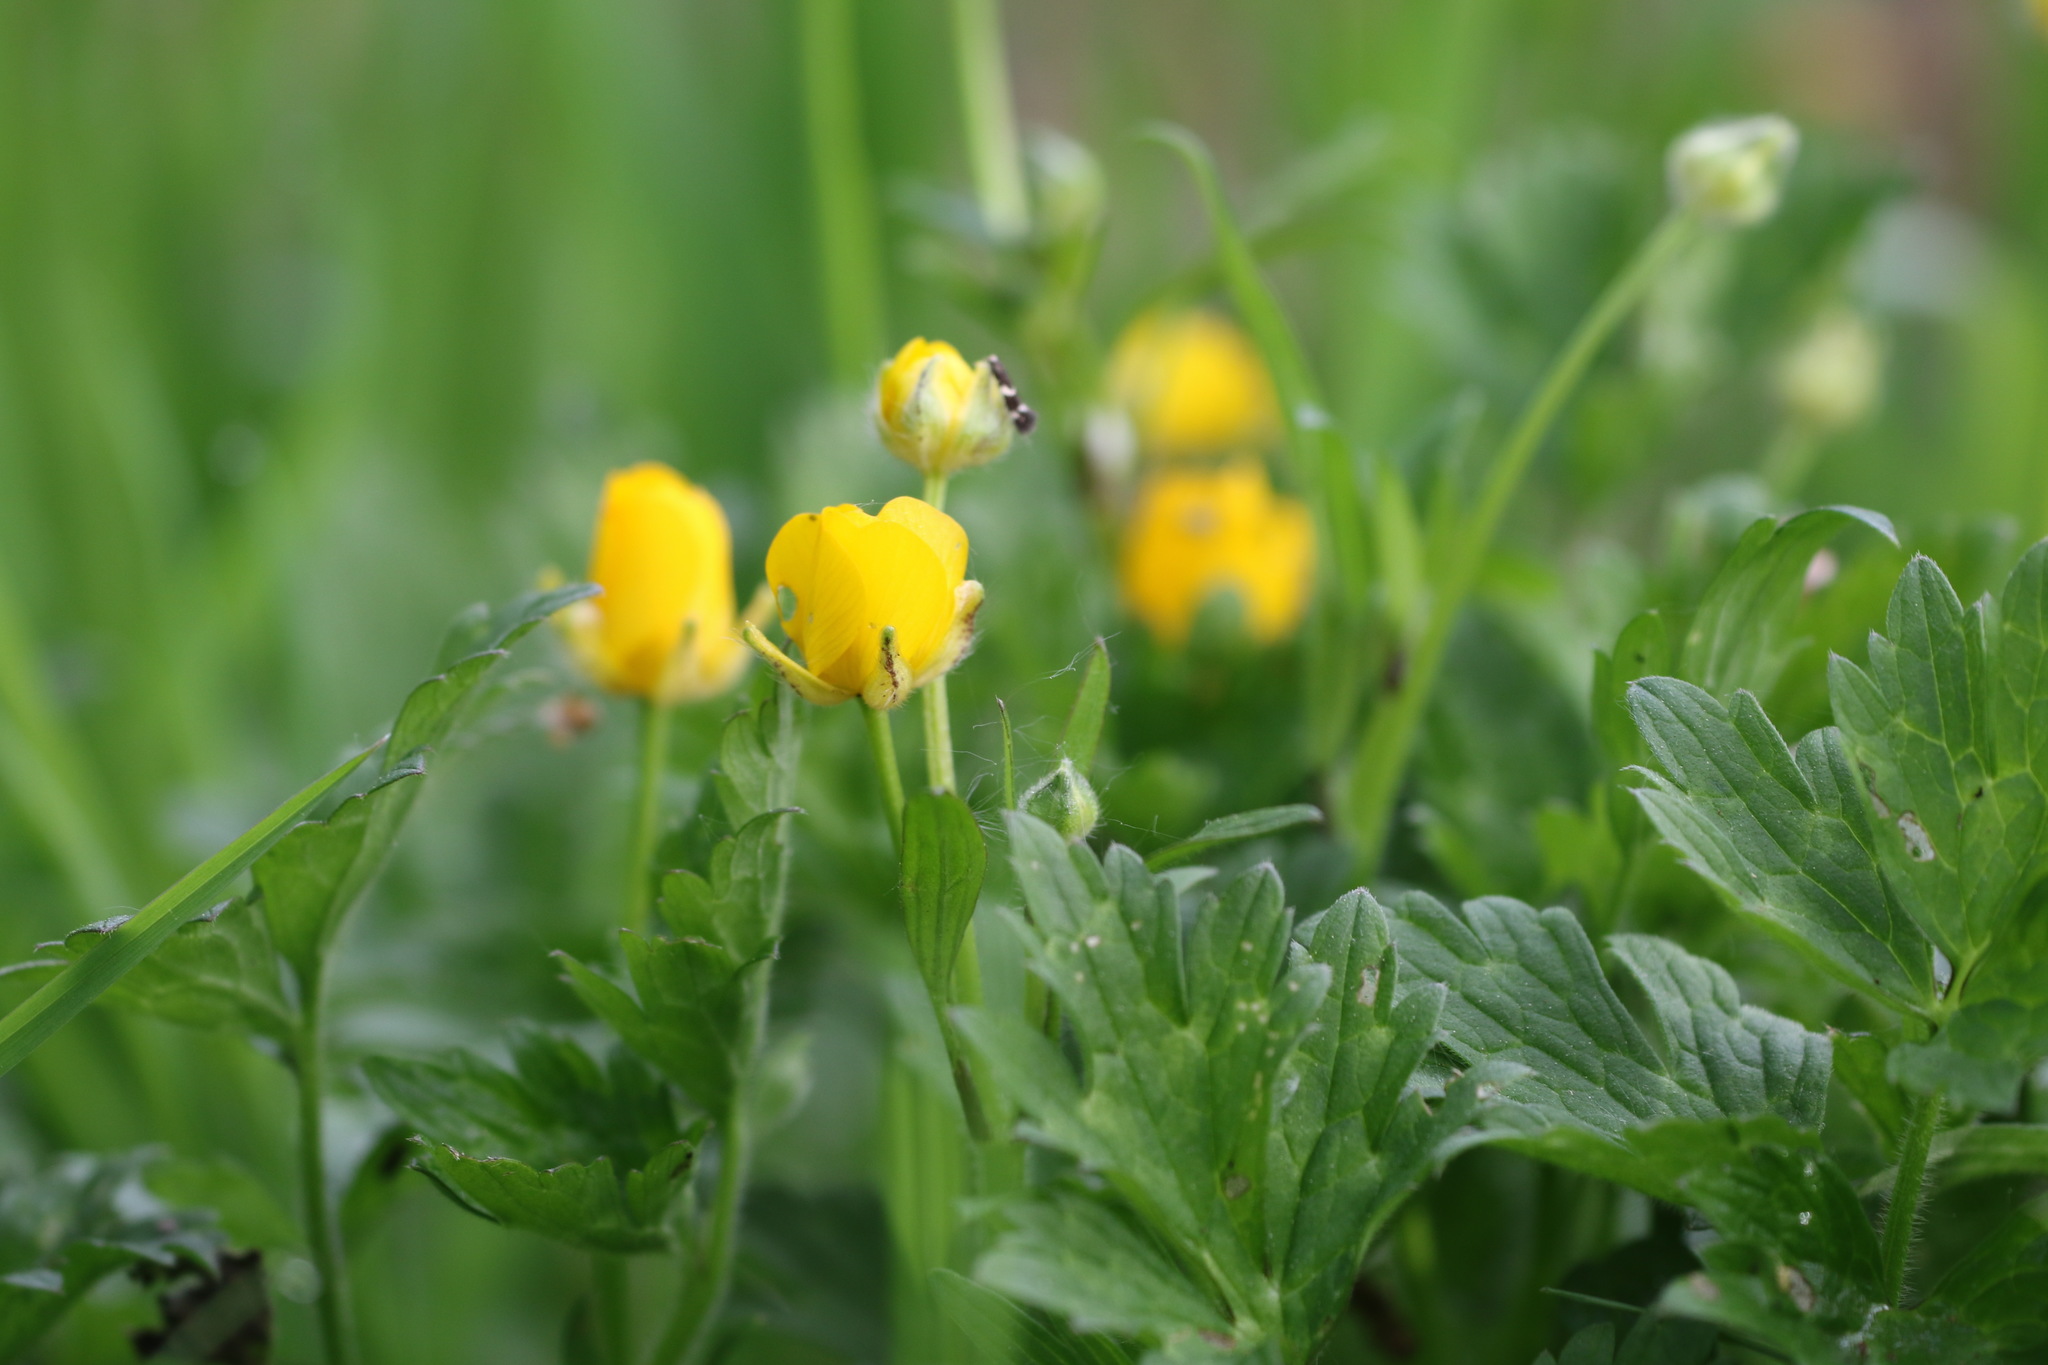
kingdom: Plantae
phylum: Tracheophyta
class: Magnoliopsida
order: Ranunculales
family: Ranunculaceae
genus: Ranunculus
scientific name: Ranunculus repens
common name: Creeping buttercup
